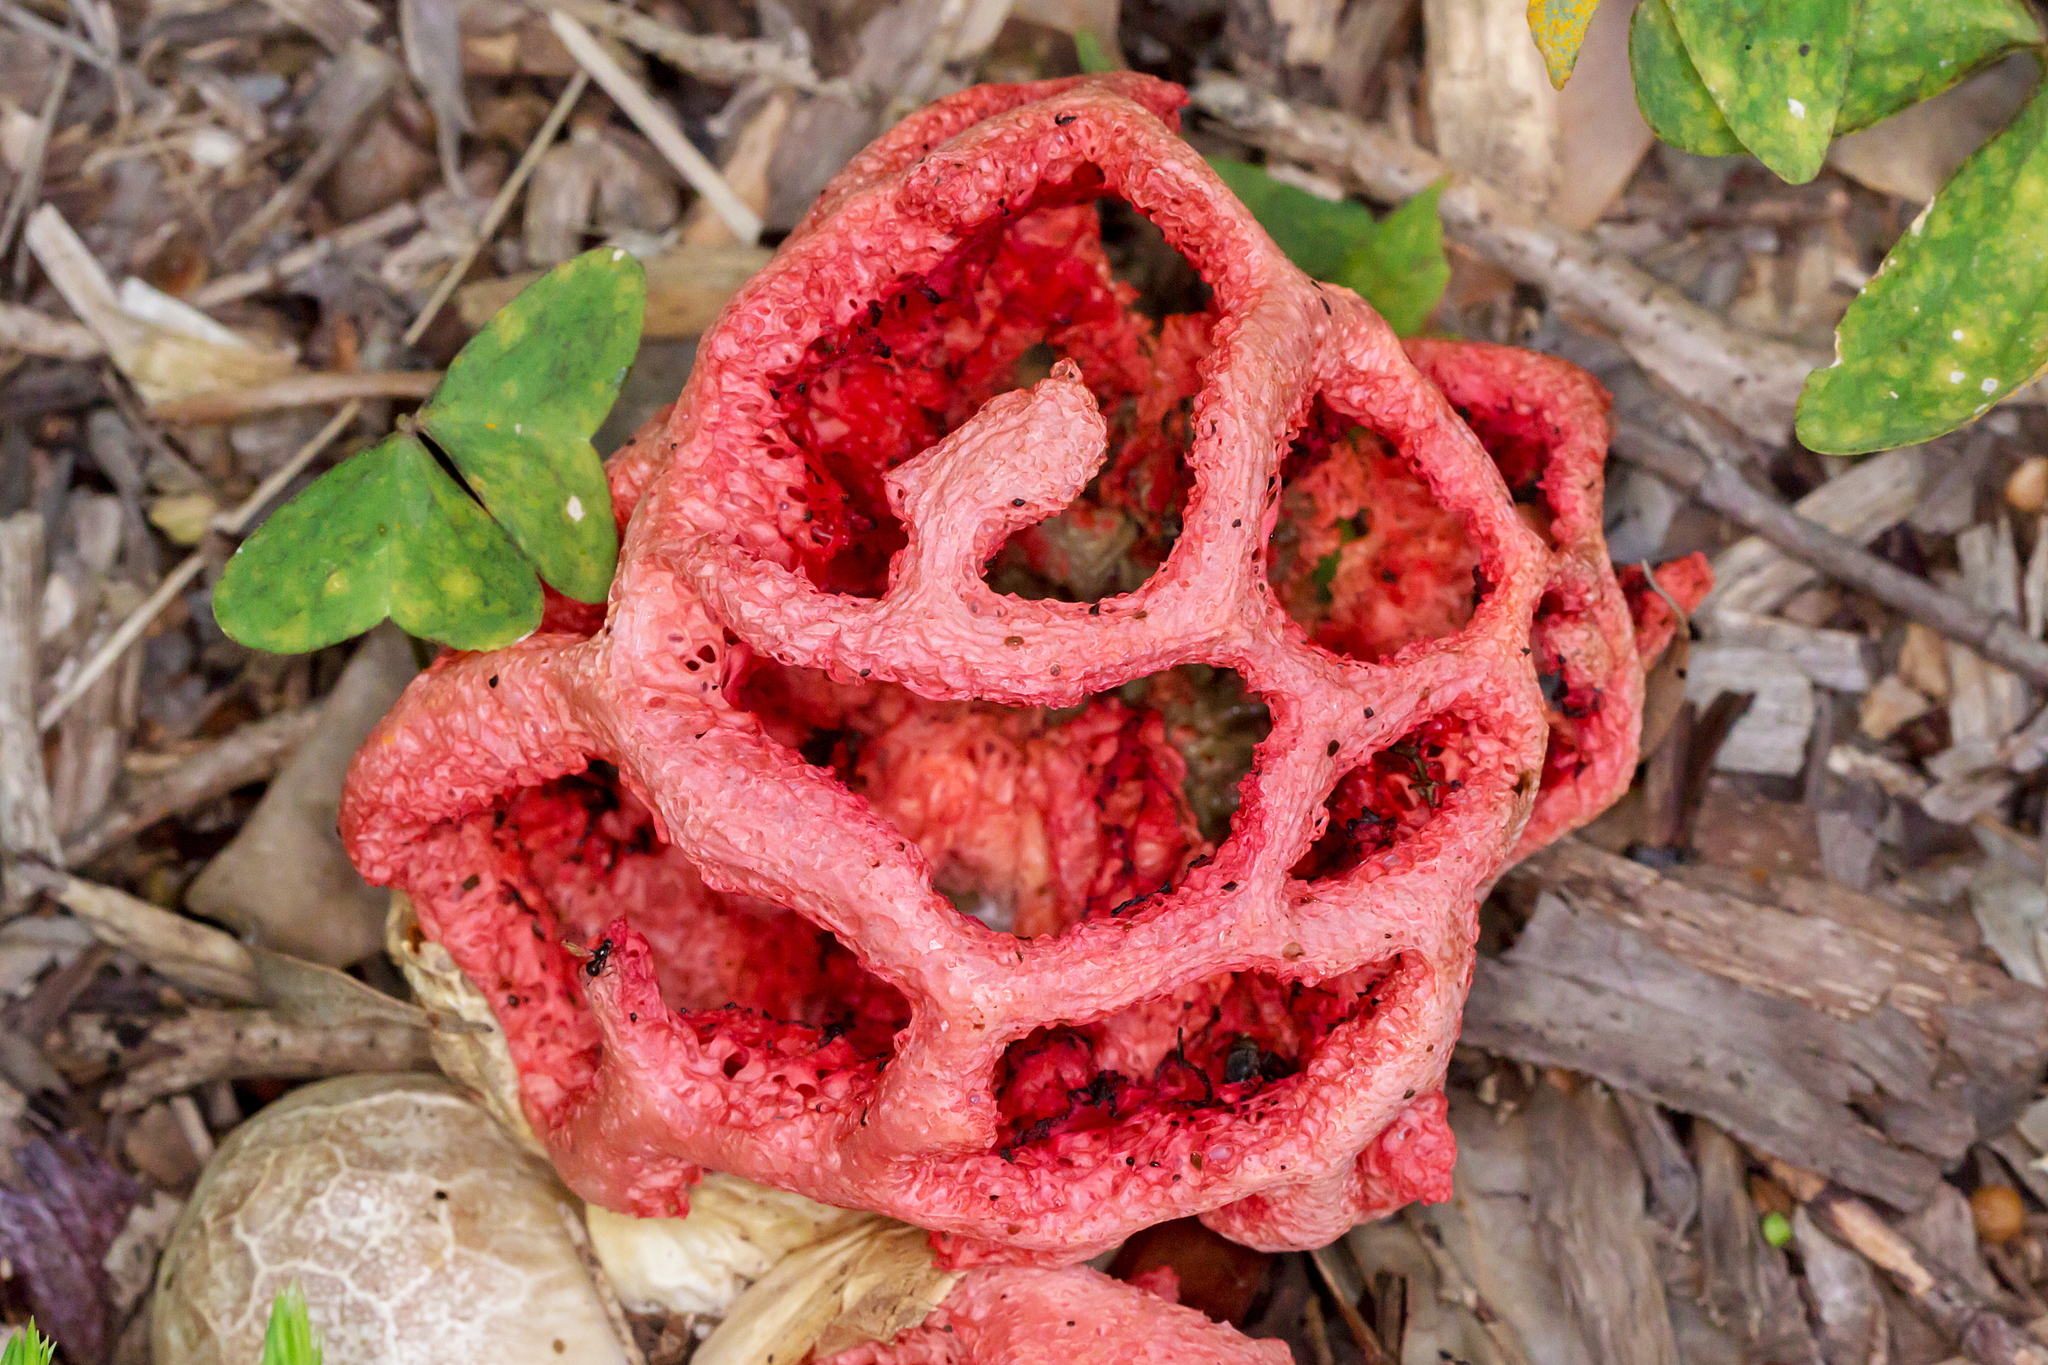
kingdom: Fungi
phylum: Basidiomycota
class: Agaricomycetes
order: Phallales
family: Phallaceae
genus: Clathrus
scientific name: Clathrus ruber
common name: Red cage
